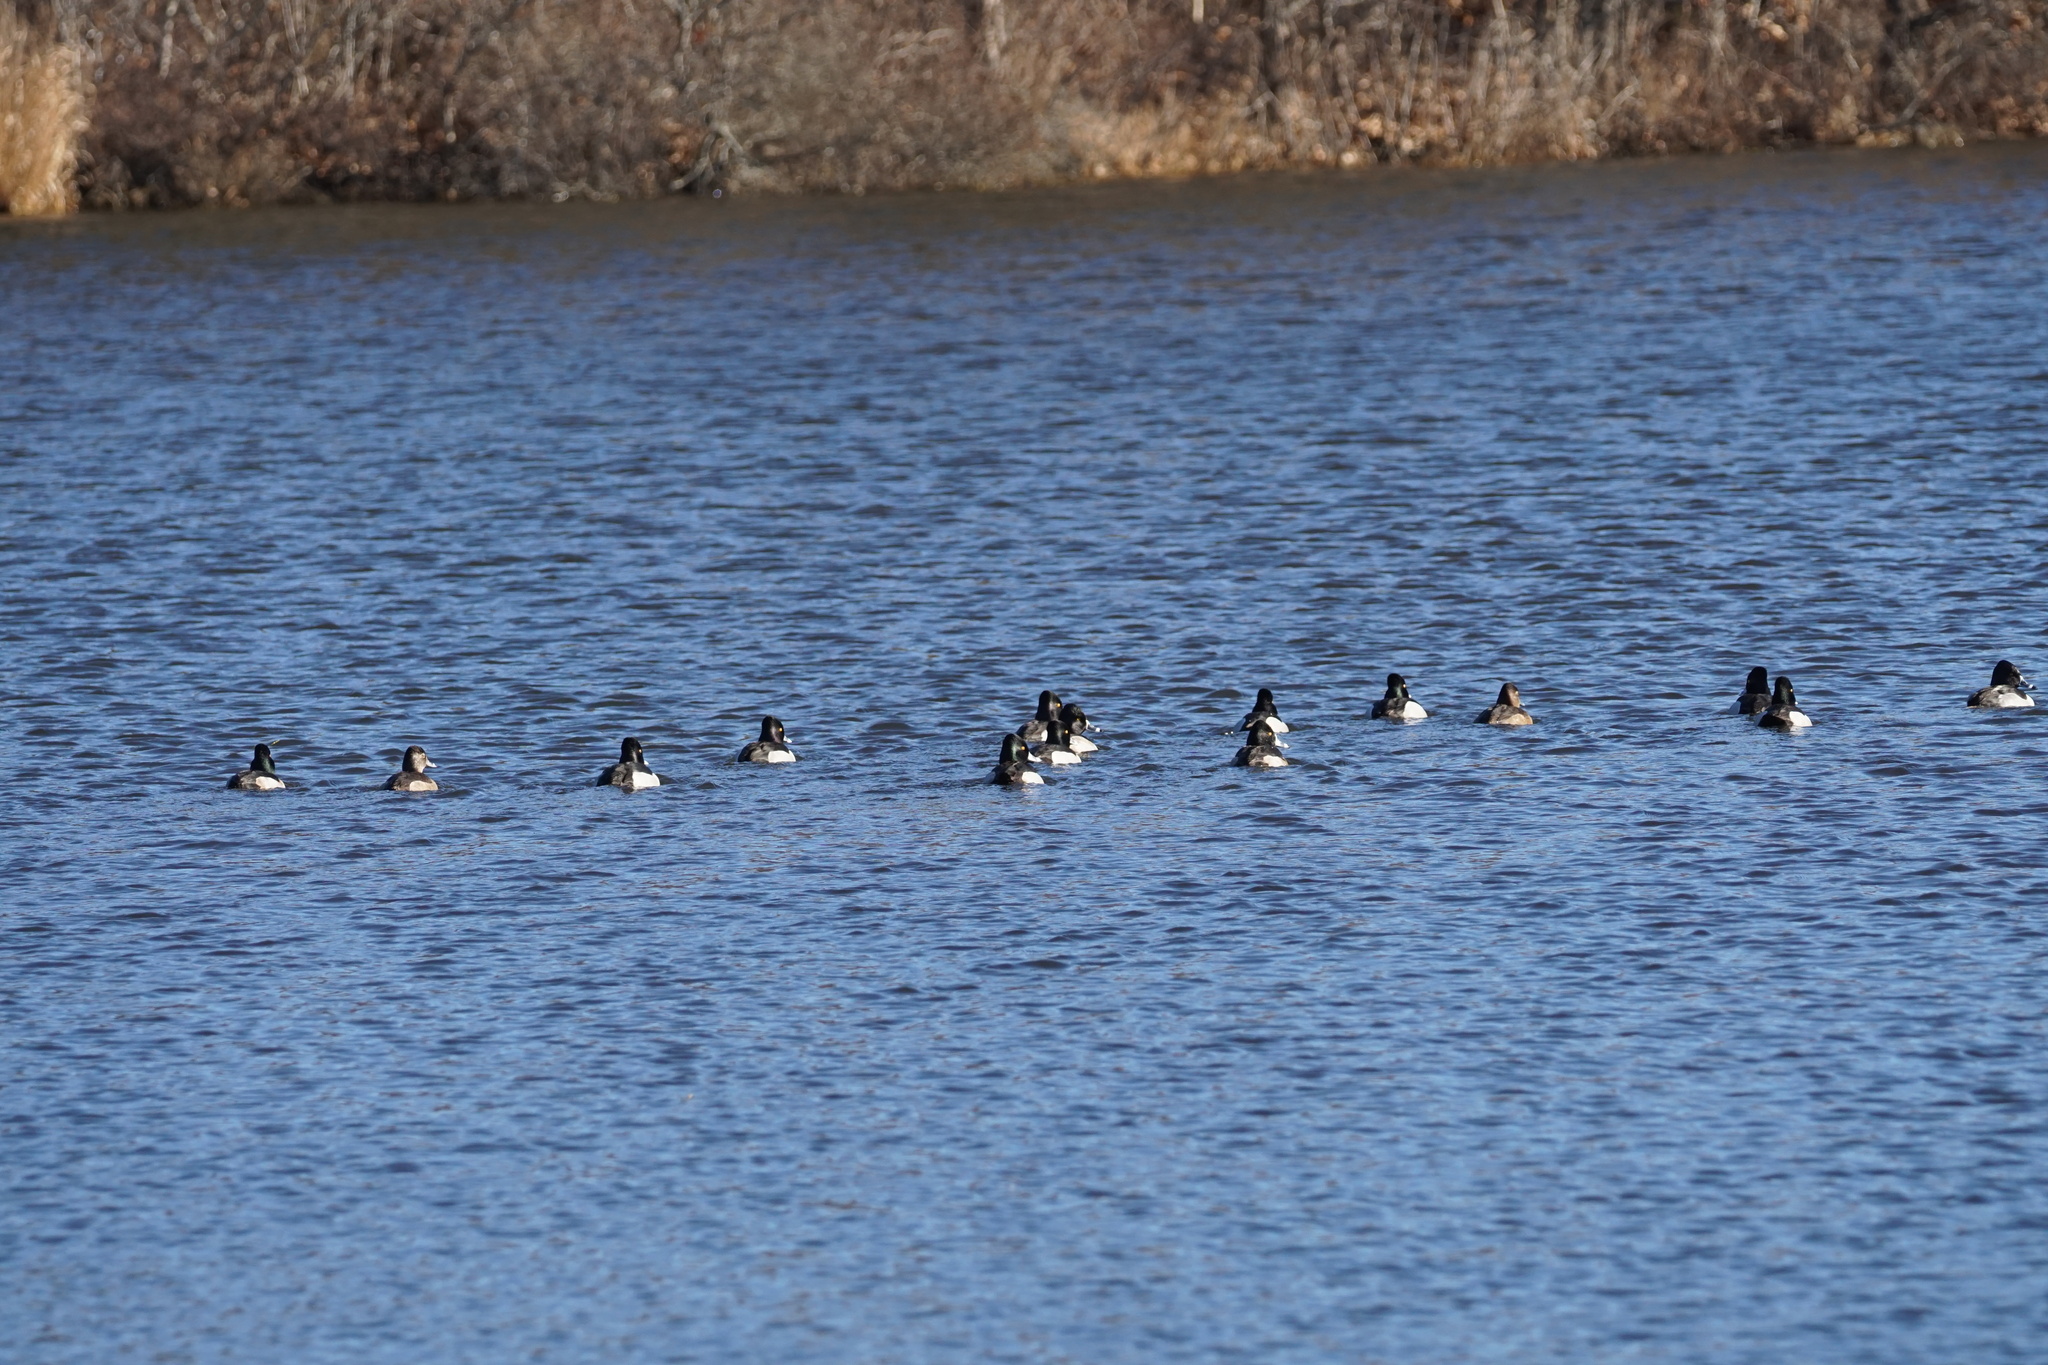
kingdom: Animalia
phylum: Chordata
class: Aves
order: Anseriformes
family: Anatidae
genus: Aythya
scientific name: Aythya collaris
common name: Ring-necked duck
